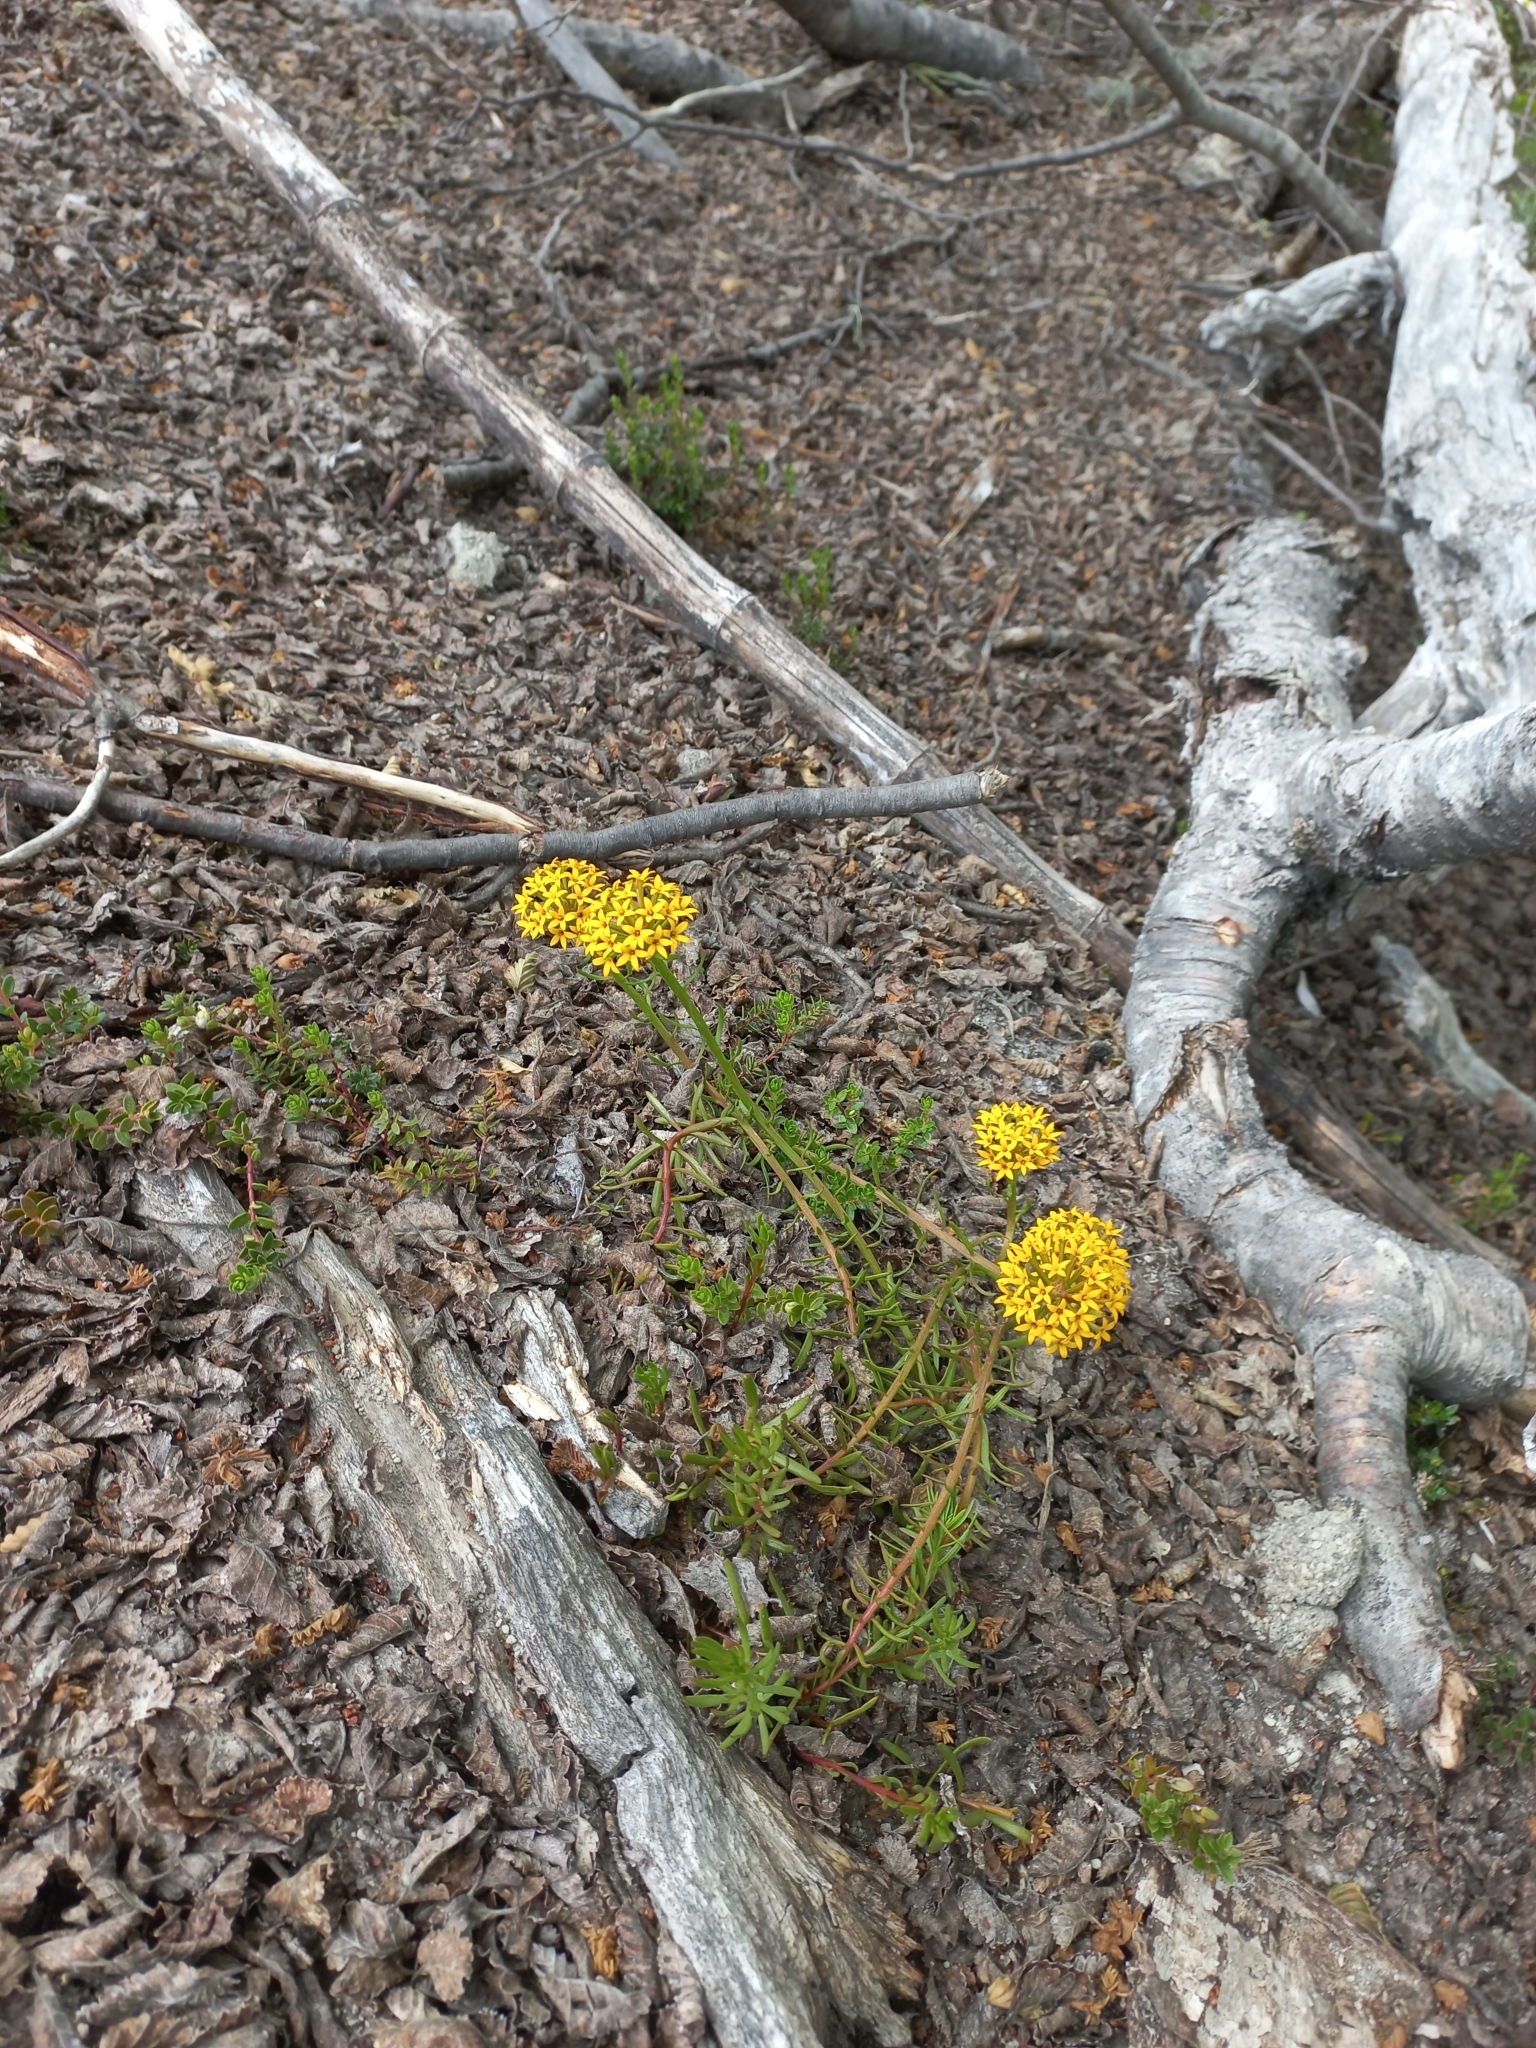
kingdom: Plantae
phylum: Tracheophyta
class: Magnoliopsida
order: Santalales
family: Schoepfiaceae
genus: Quinchamalium
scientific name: Quinchamalium chilense
